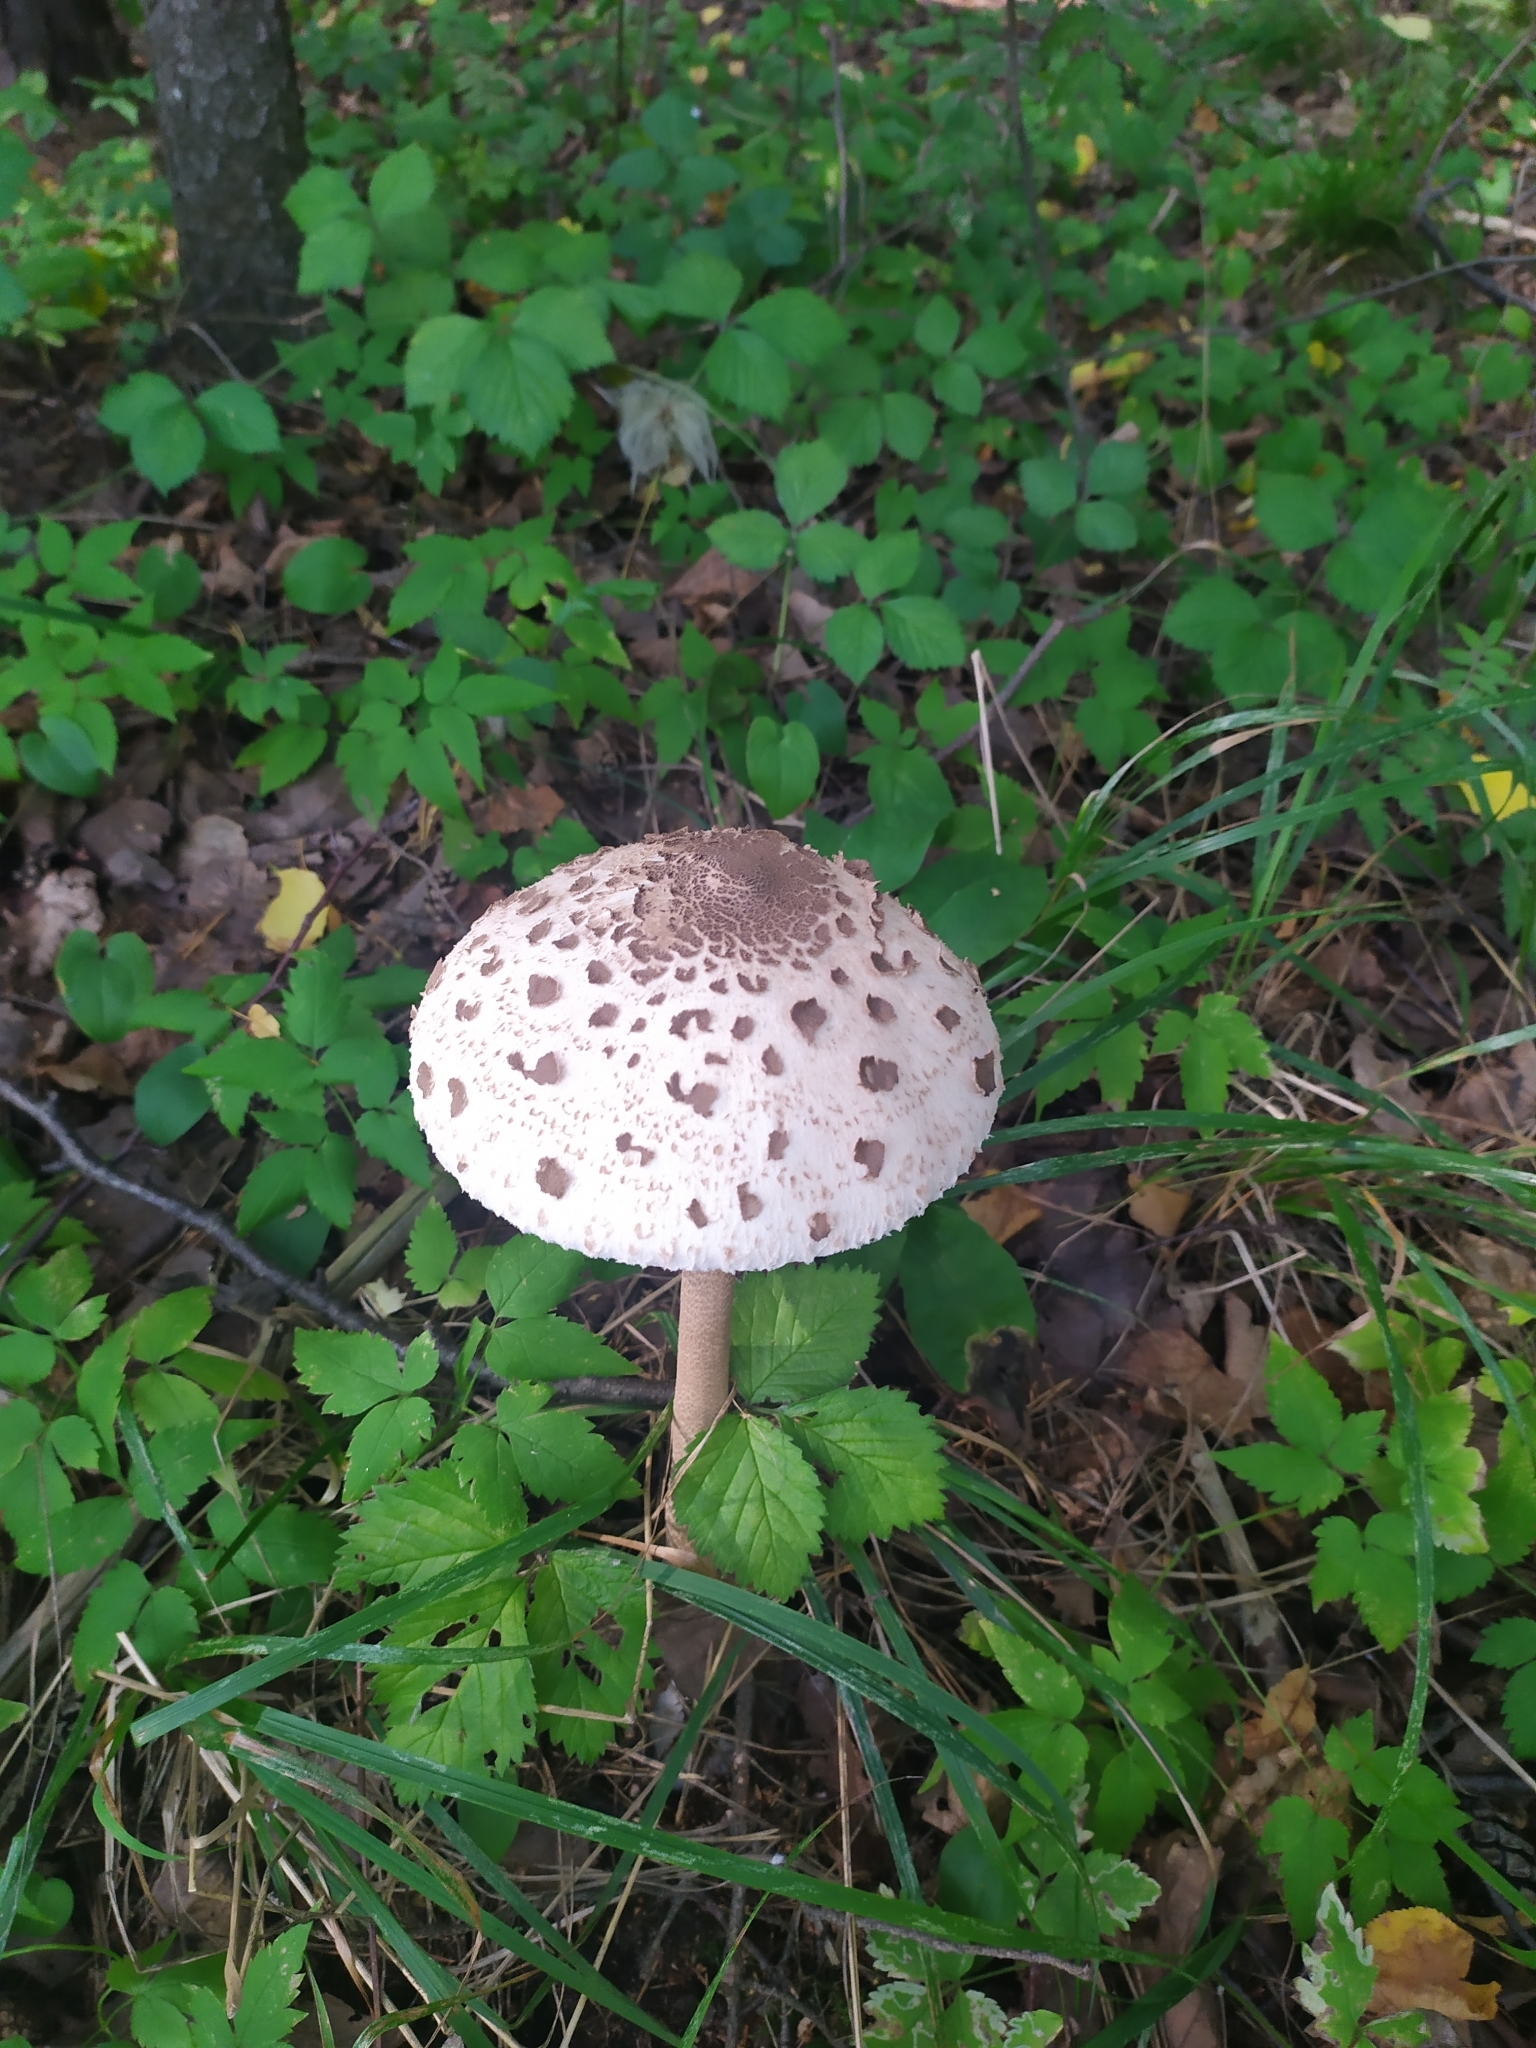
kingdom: Fungi
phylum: Basidiomycota
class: Agaricomycetes
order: Agaricales
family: Agaricaceae
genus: Macrolepiota
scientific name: Macrolepiota procera
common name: Parasol
